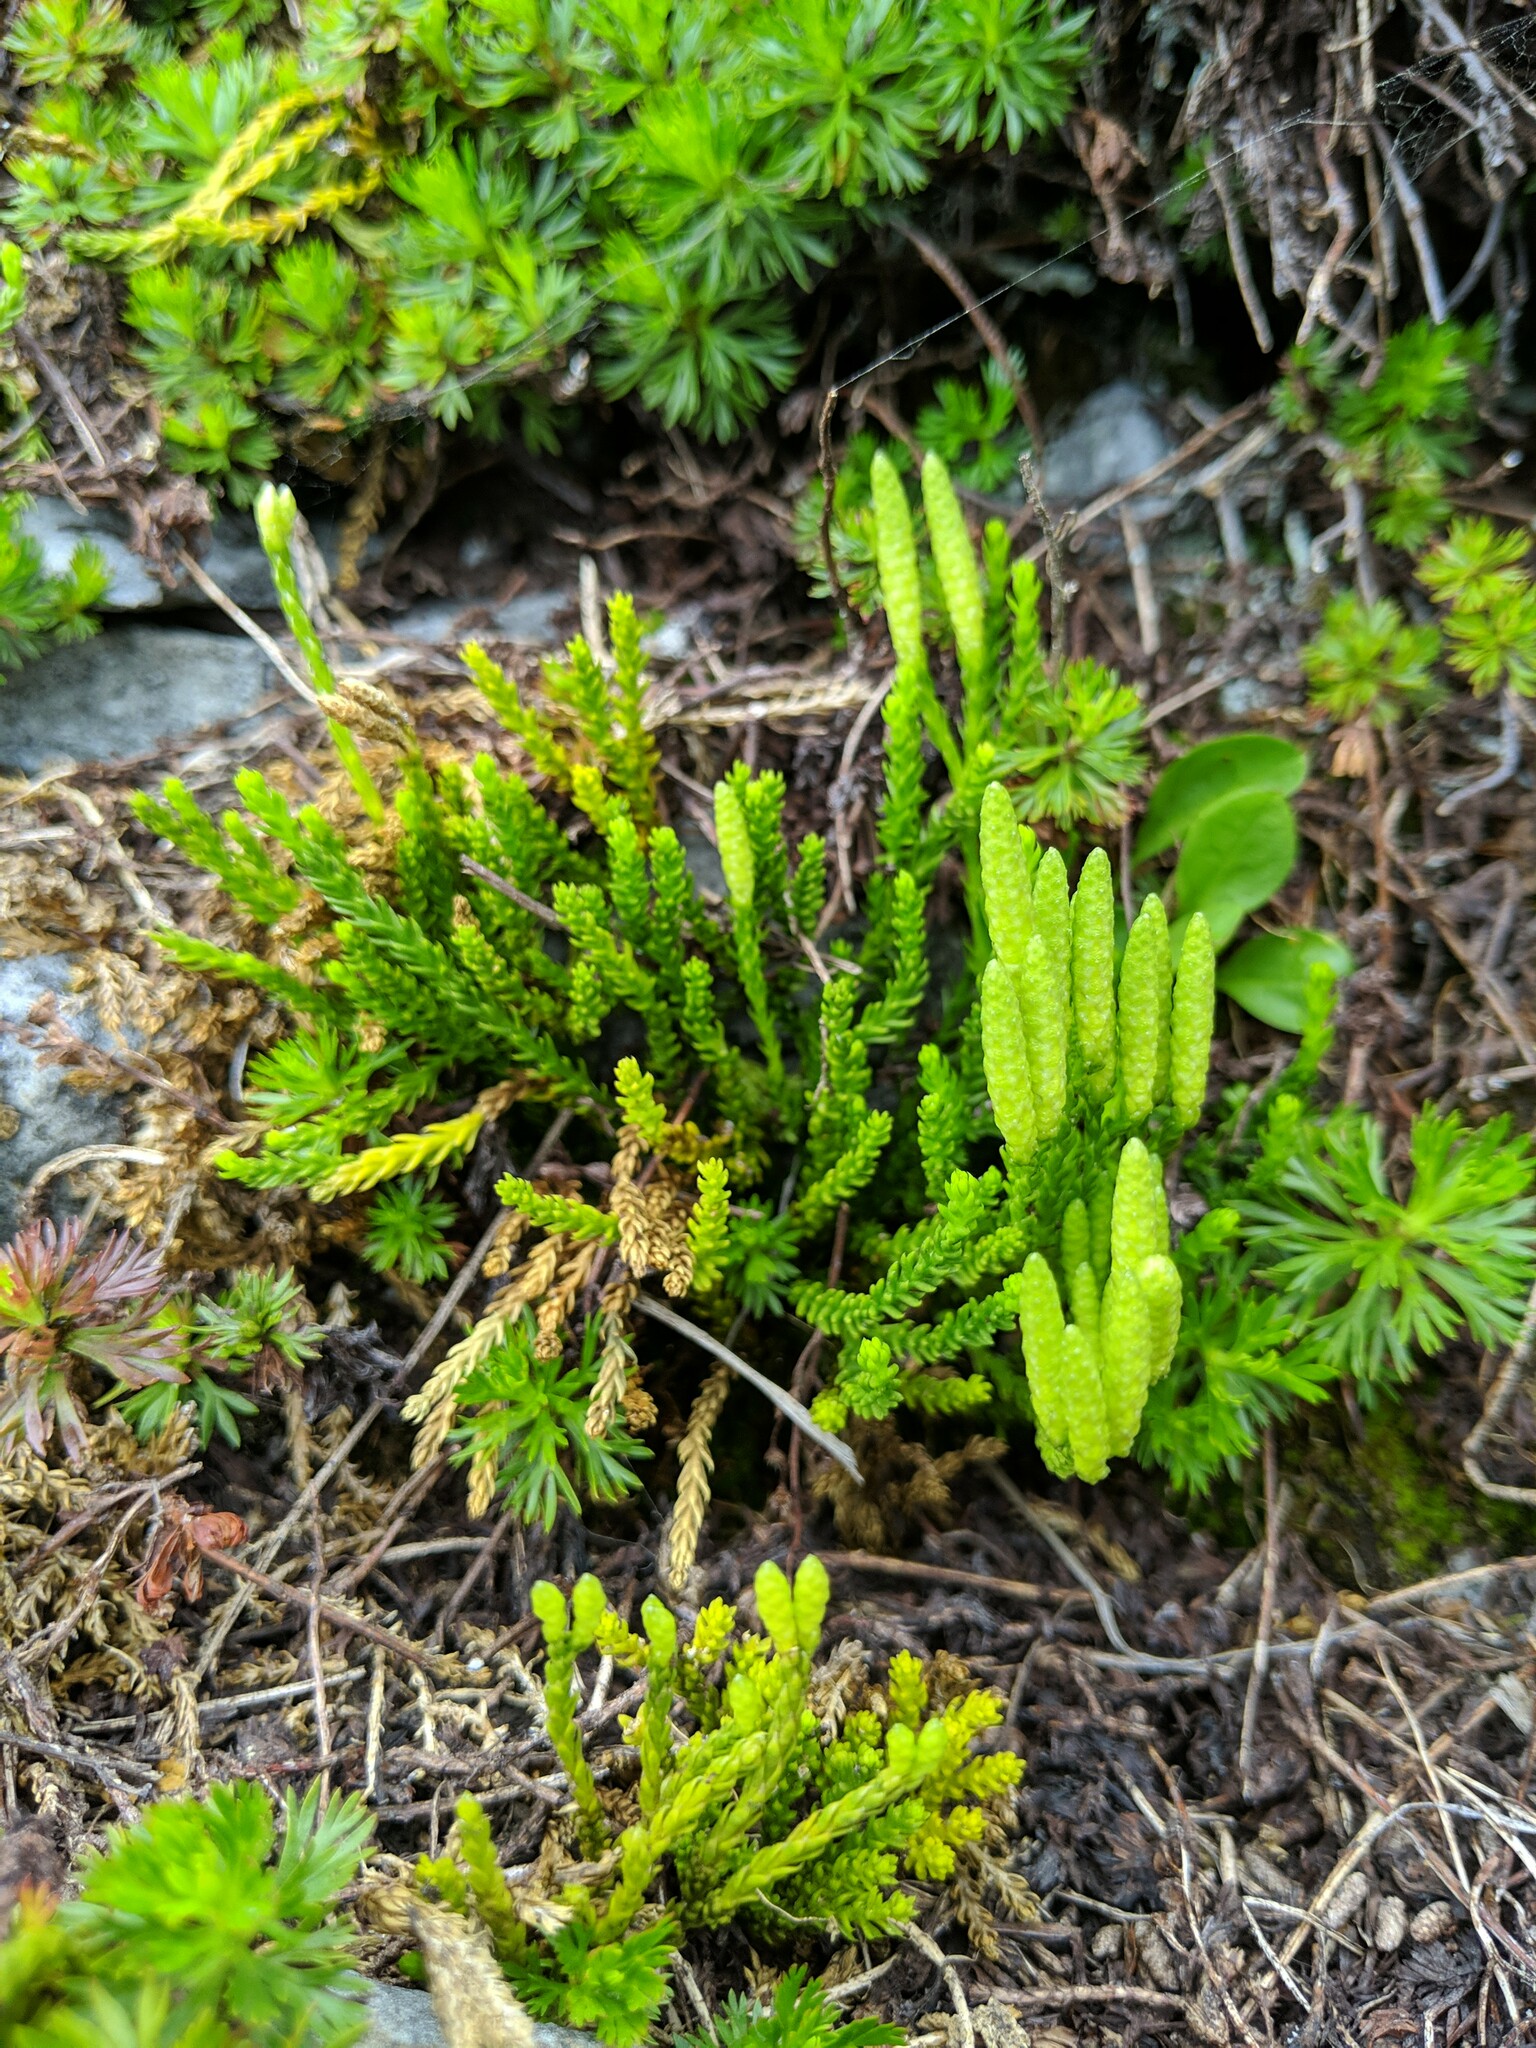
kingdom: Plantae
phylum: Tracheophyta
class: Lycopodiopsida
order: Lycopodiales
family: Lycopodiaceae
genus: Diphasiastrum
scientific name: Diphasiastrum sitchense
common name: Alaska clubmoss
